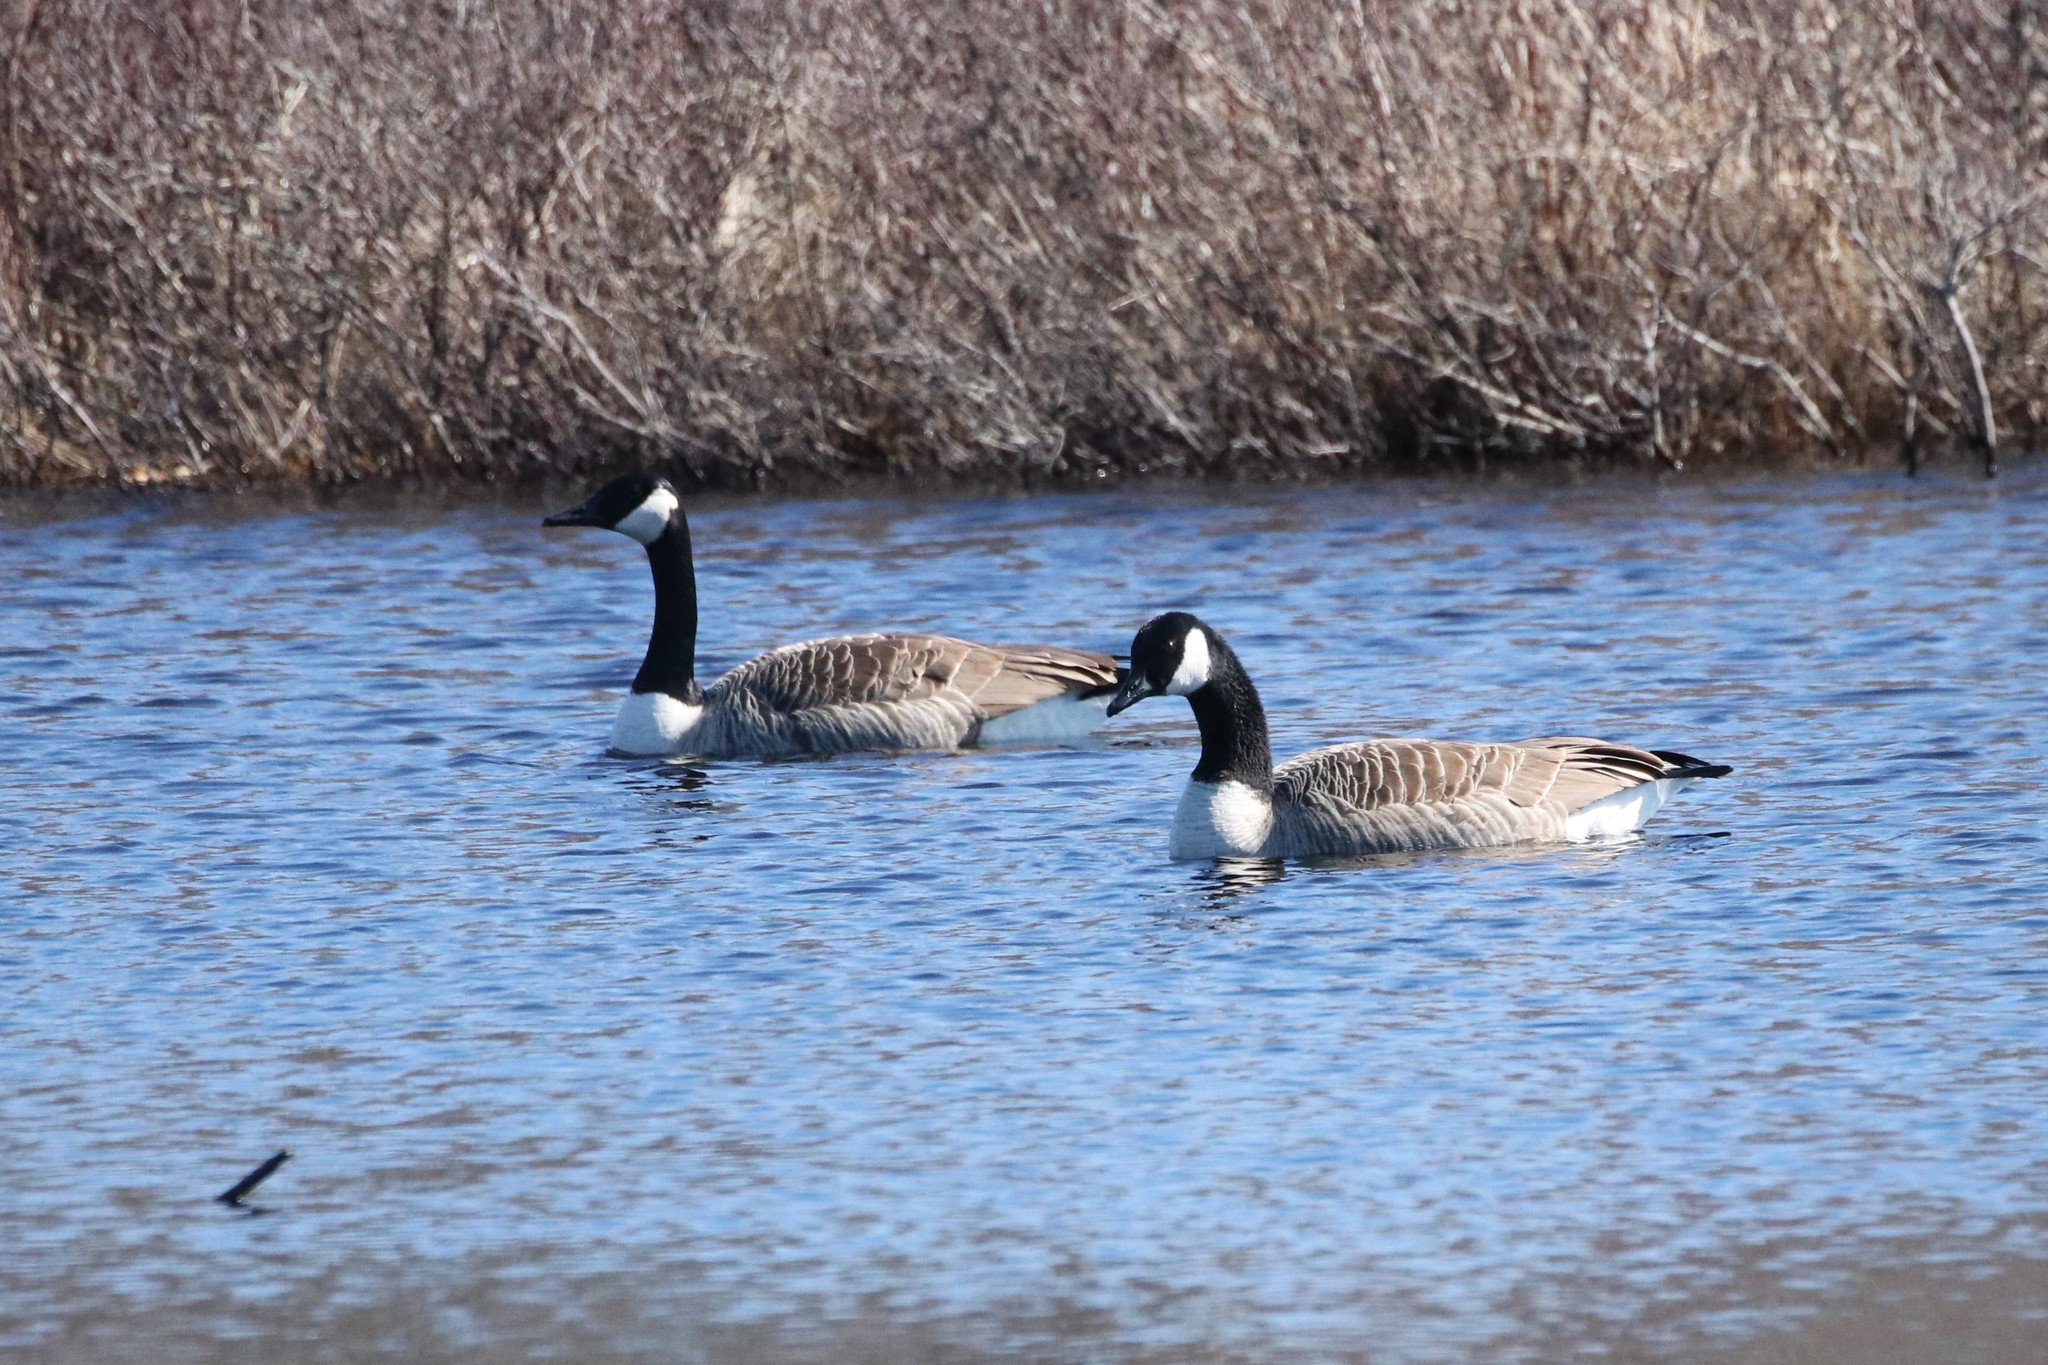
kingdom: Animalia
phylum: Chordata
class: Aves
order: Anseriformes
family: Anatidae
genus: Branta
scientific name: Branta canadensis
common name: Canada goose
